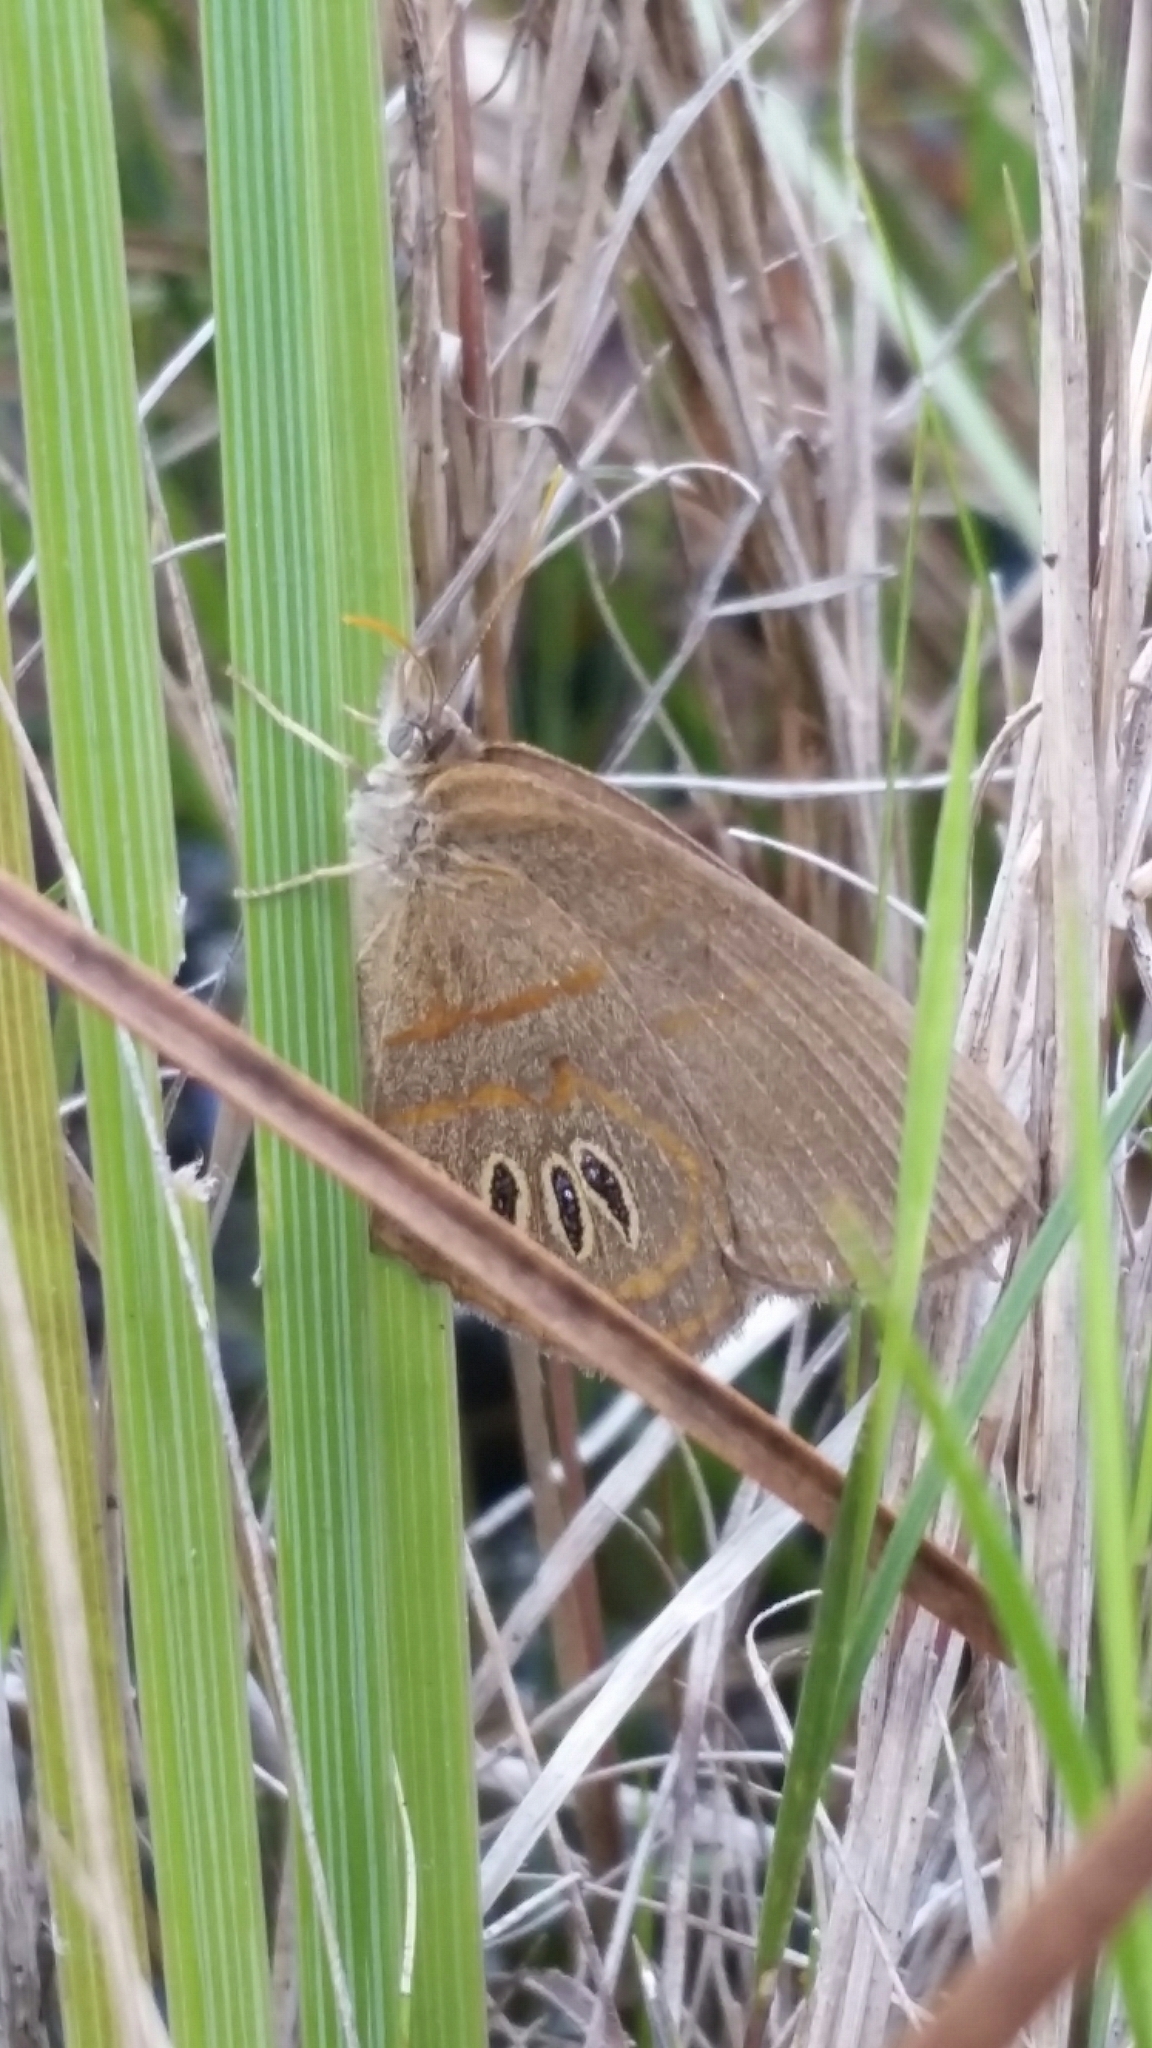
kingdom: Animalia
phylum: Arthropoda
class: Insecta
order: Lepidoptera
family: Nymphalidae
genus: Euptychia
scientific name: Euptychia phocion
